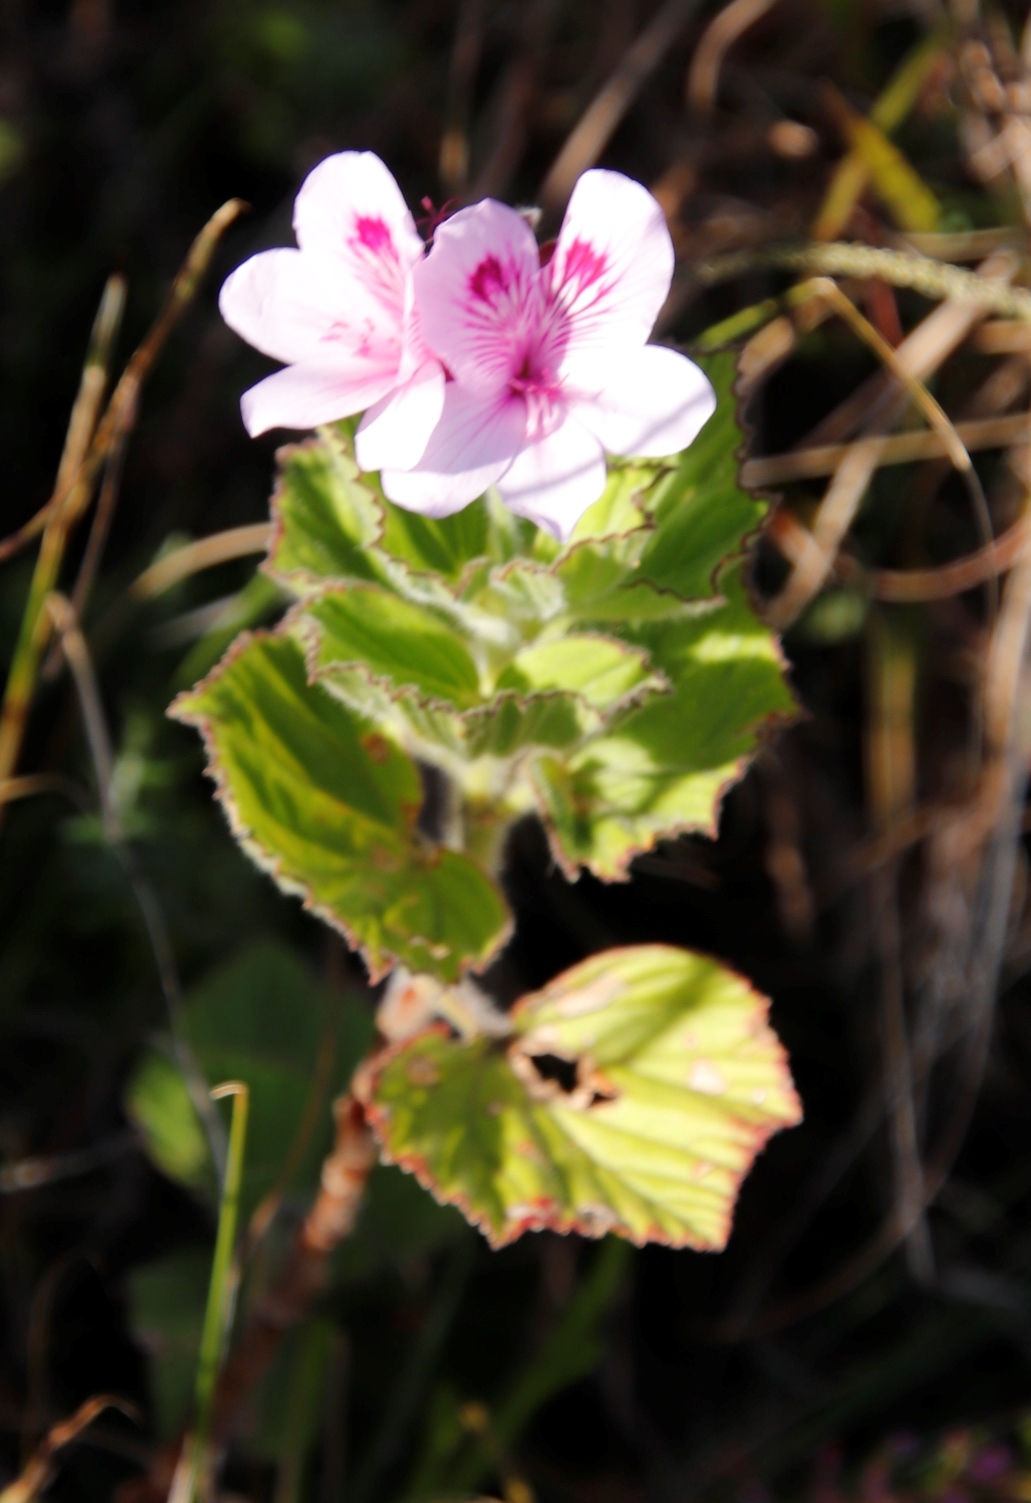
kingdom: Plantae
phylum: Tracheophyta
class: Magnoliopsida
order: Geraniales
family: Geraniaceae
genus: Pelargonium
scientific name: Pelargonium cucullatum
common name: Tree pelargonium
